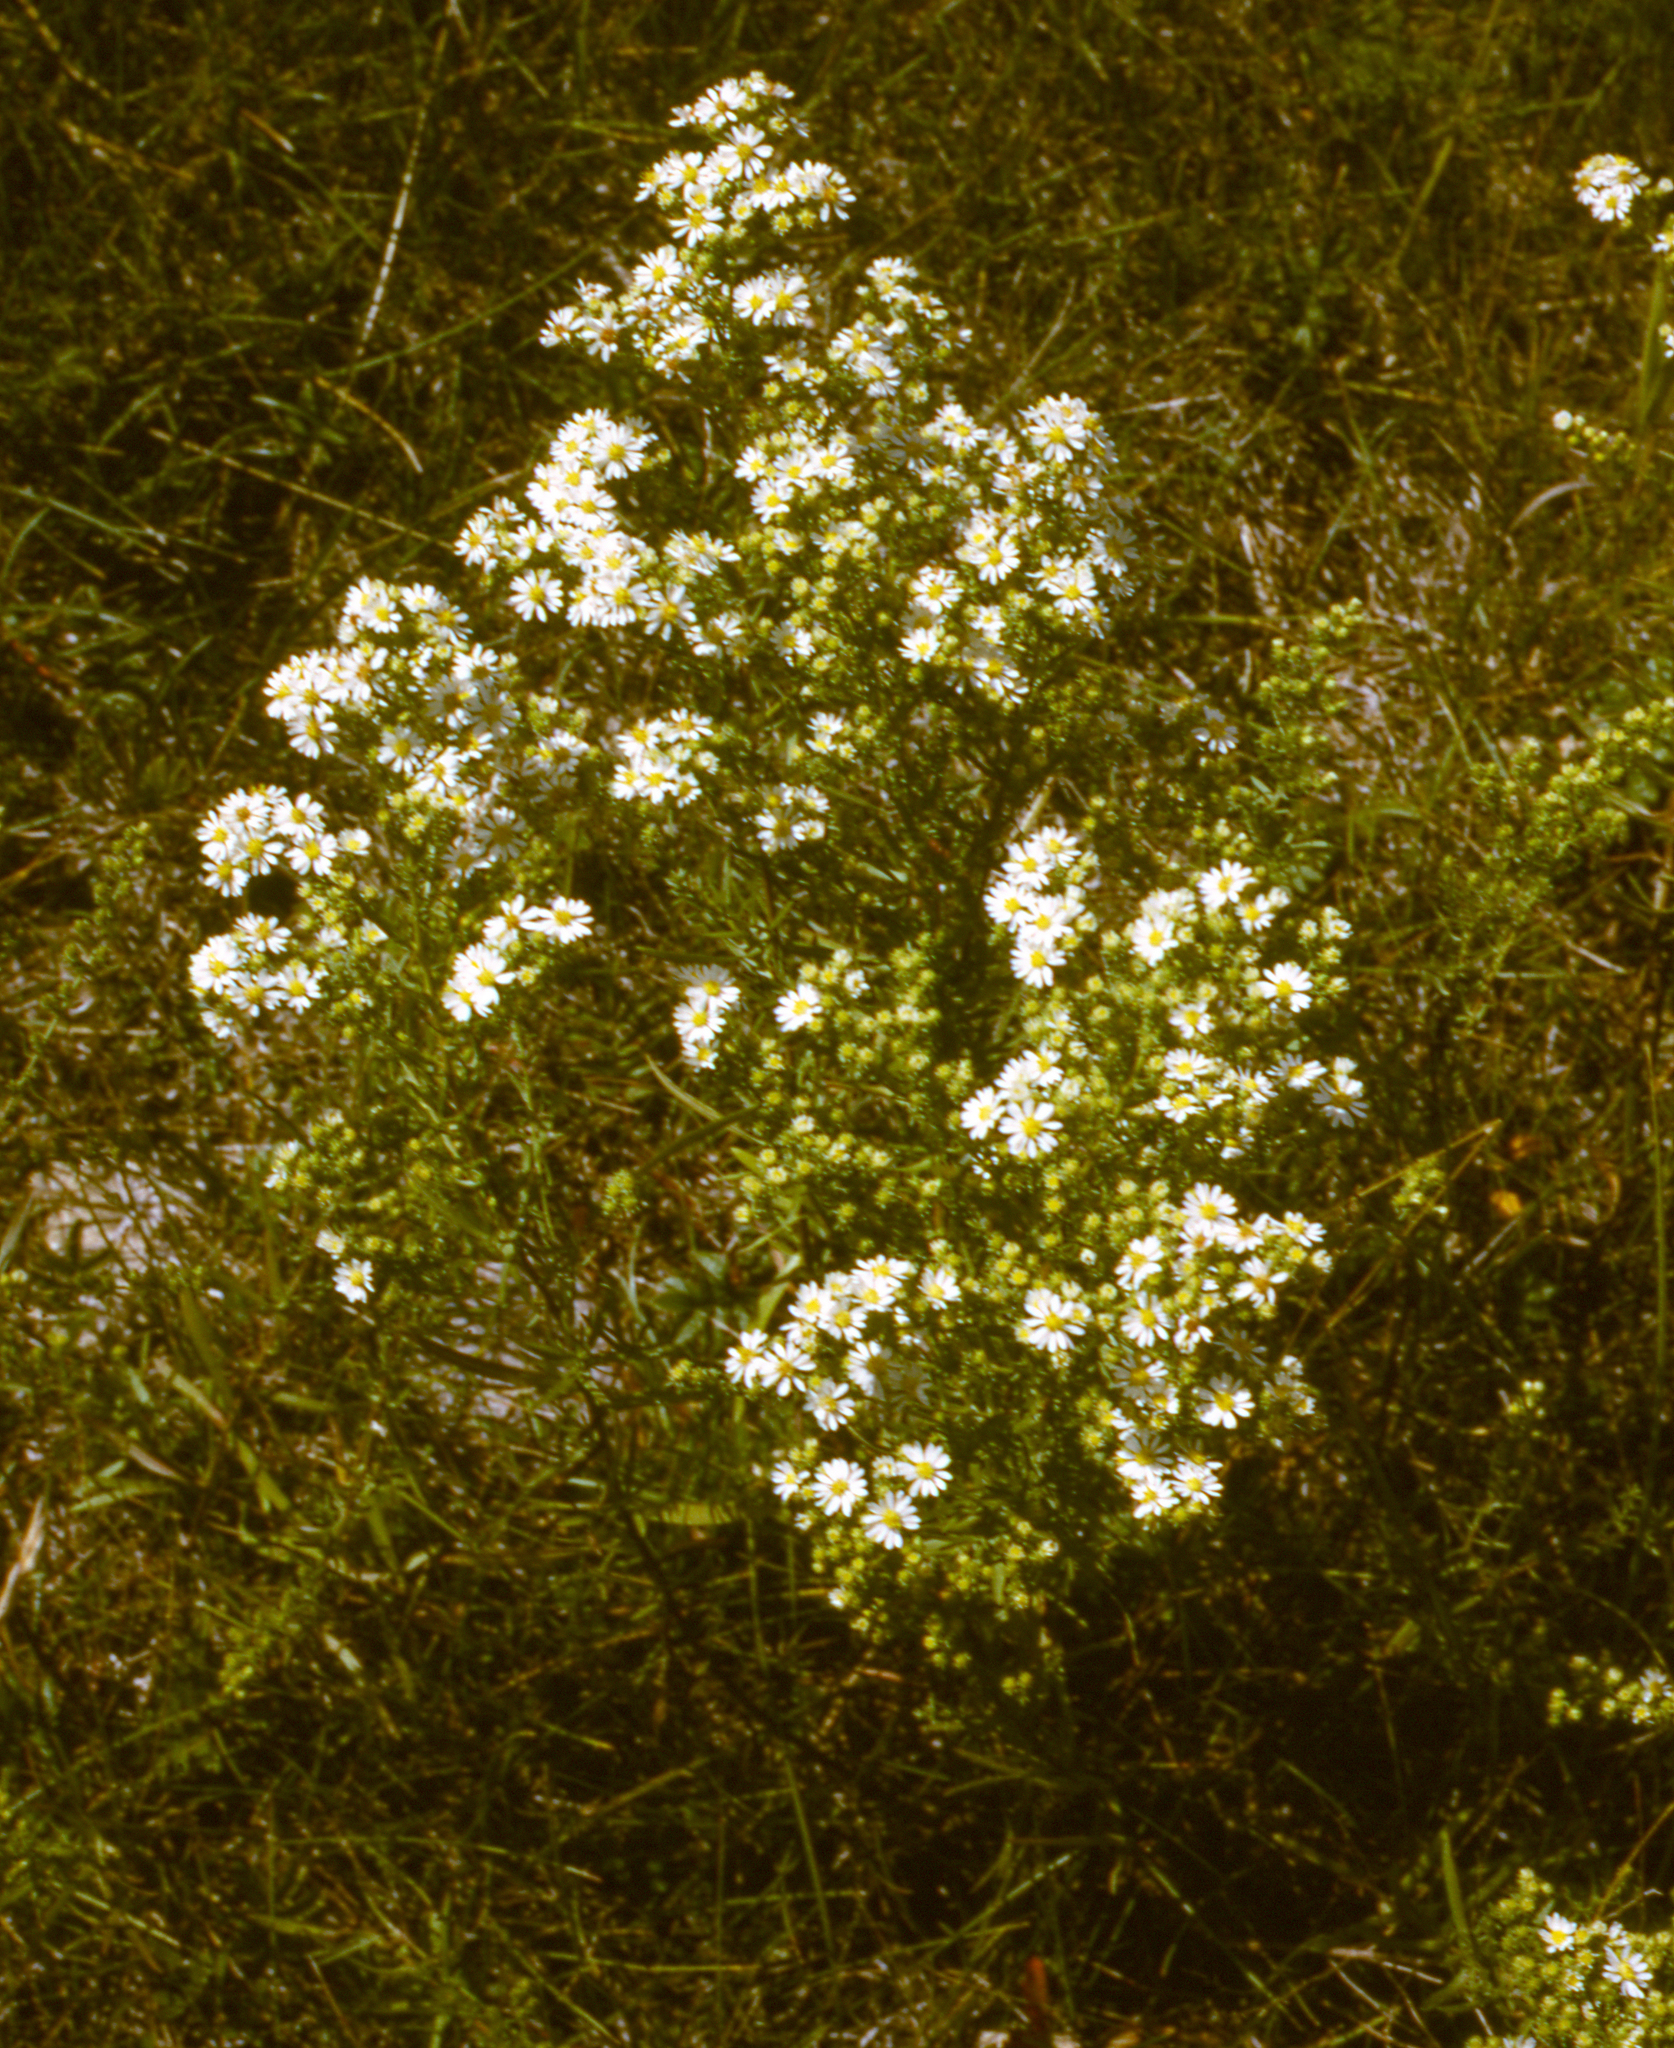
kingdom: Plantae
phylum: Tracheophyta
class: Magnoliopsida
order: Asterales
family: Asteraceae
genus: Symphyotrichum
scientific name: Symphyotrichum ericoides
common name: Heath aster
